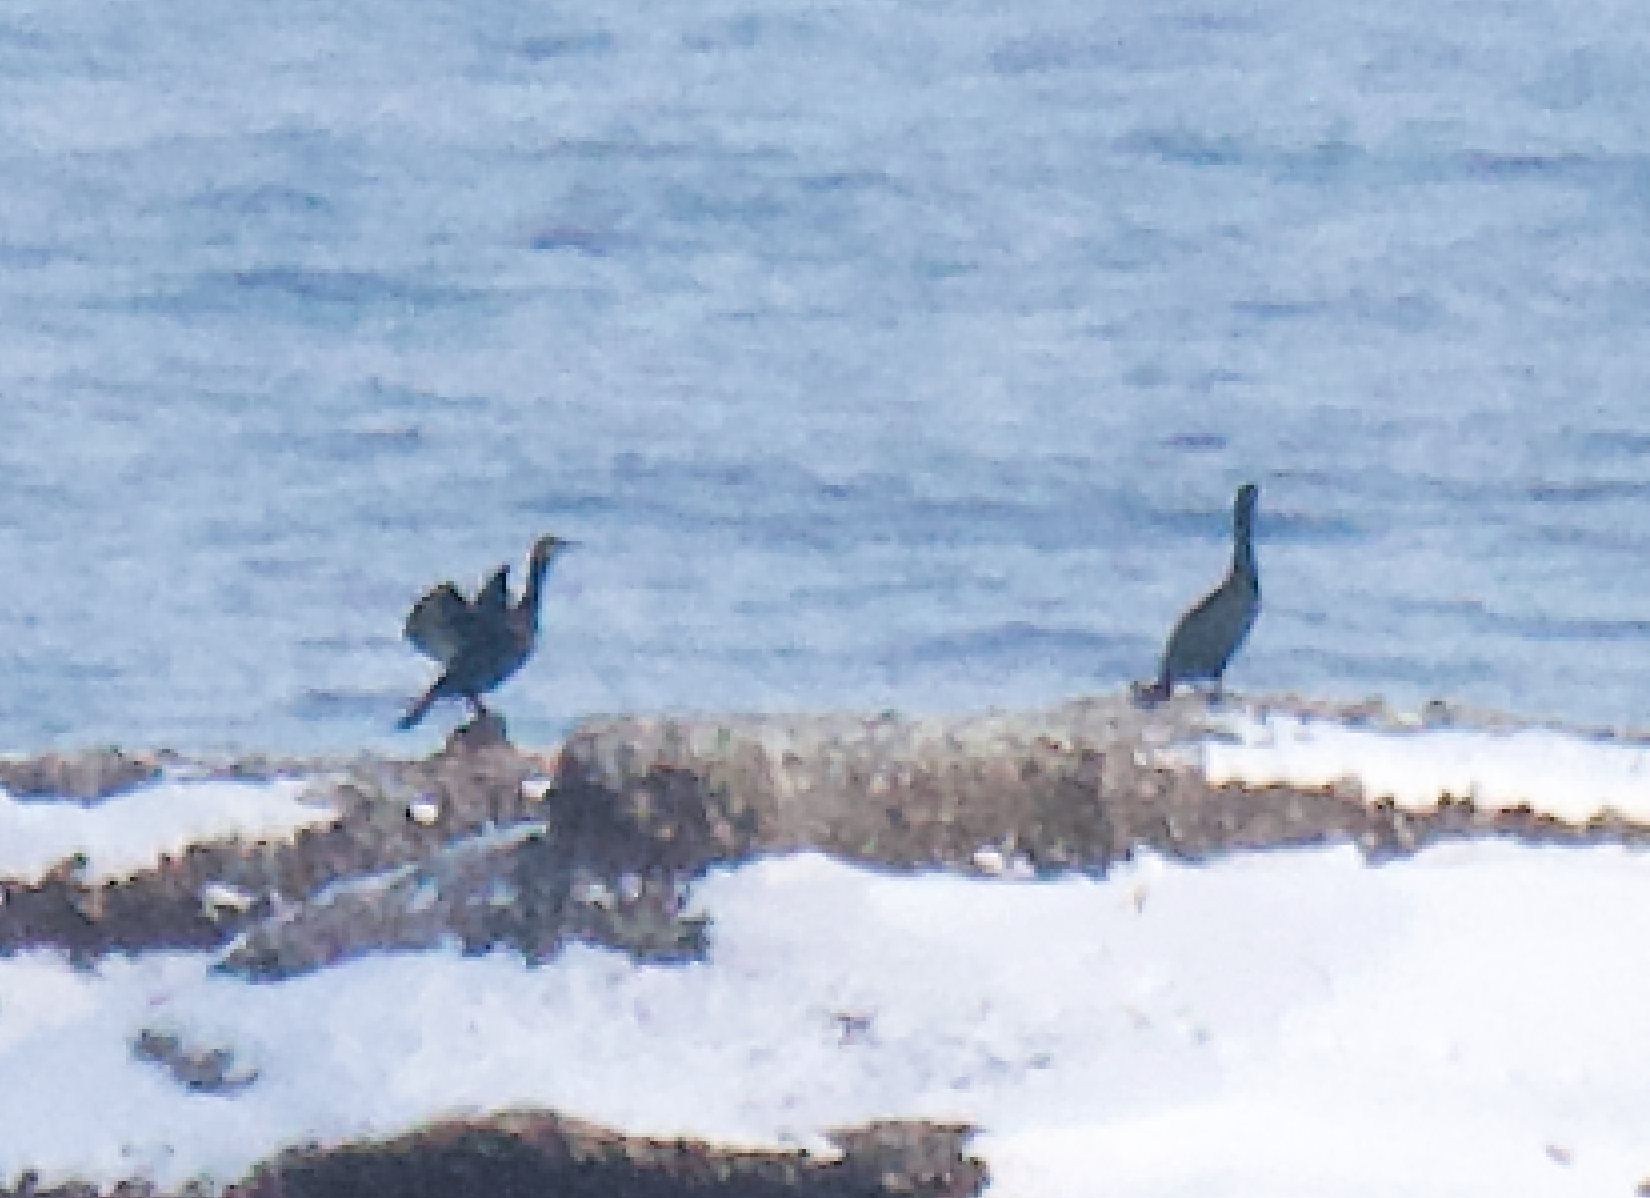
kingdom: Animalia
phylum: Chordata
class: Aves
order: Suliformes
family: Phalacrocoracidae
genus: Phalacrocorax
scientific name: Phalacrocorax carbo
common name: Great cormorant
